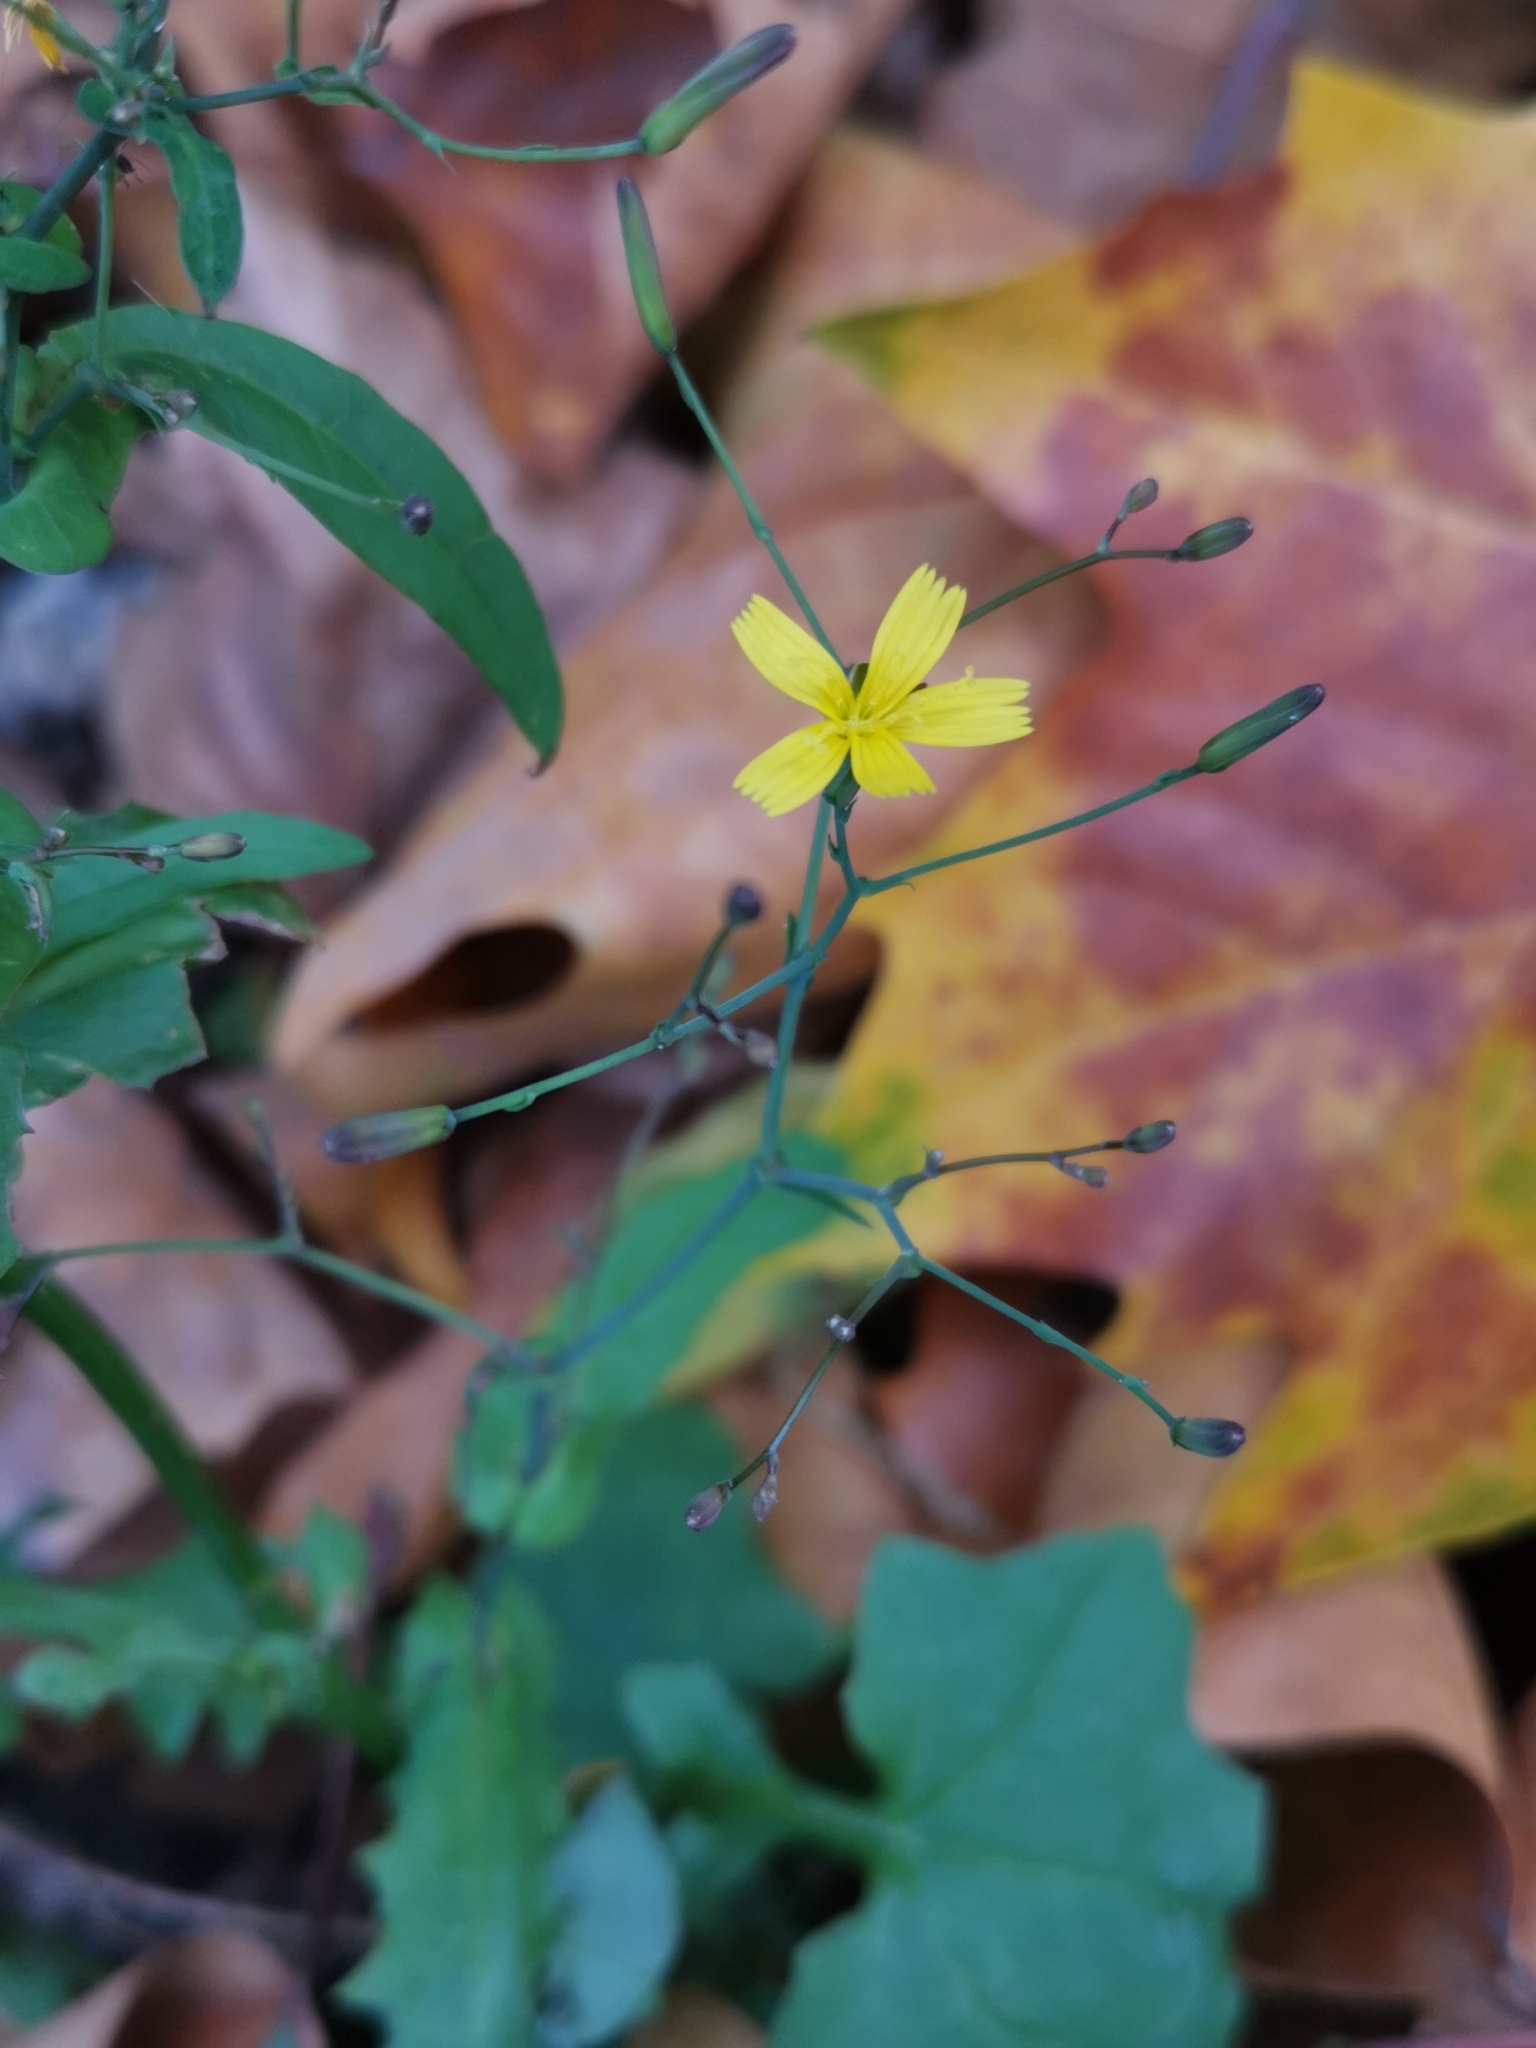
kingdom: Plantae
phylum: Tracheophyta
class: Magnoliopsida
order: Asterales
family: Asteraceae
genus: Mycelis
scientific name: Mycelis muralis
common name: Wall lettuce
